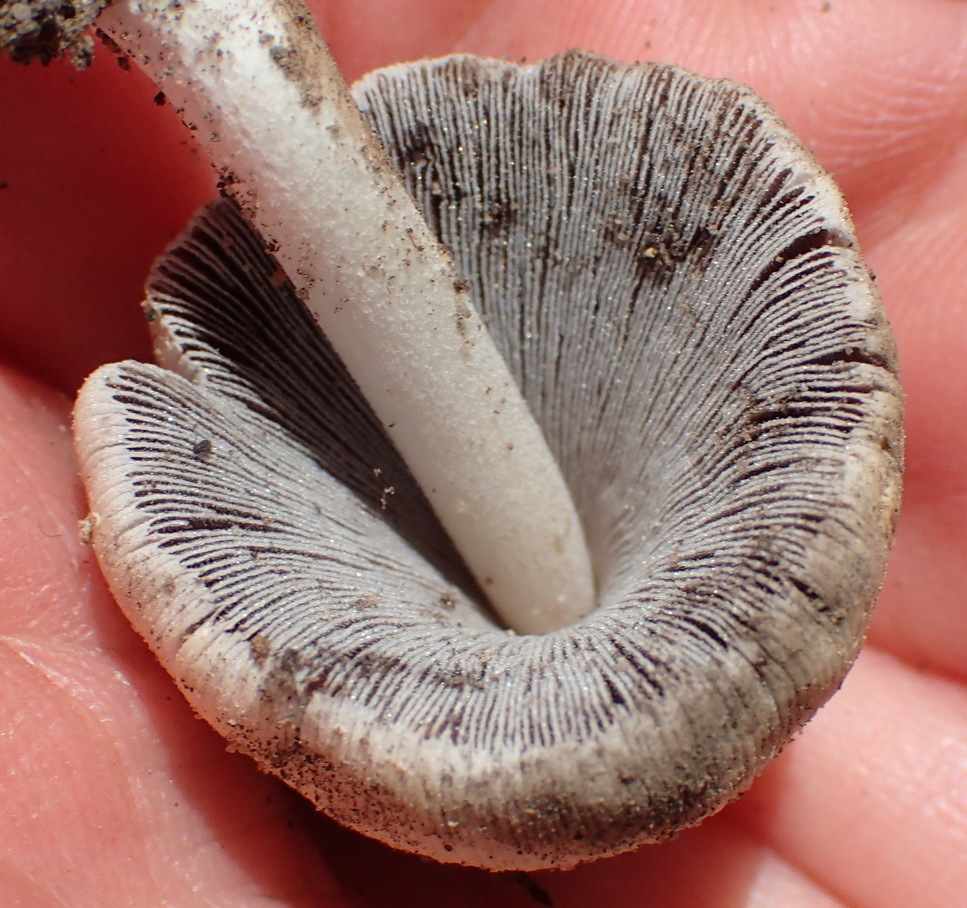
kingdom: Fungi
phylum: Basidiomycota
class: Agaricomycetes
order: Agaricales
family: Psathyrellaceae
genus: Coprinellus
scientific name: Coprinellus micaceus
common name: Glistening ink-cap
